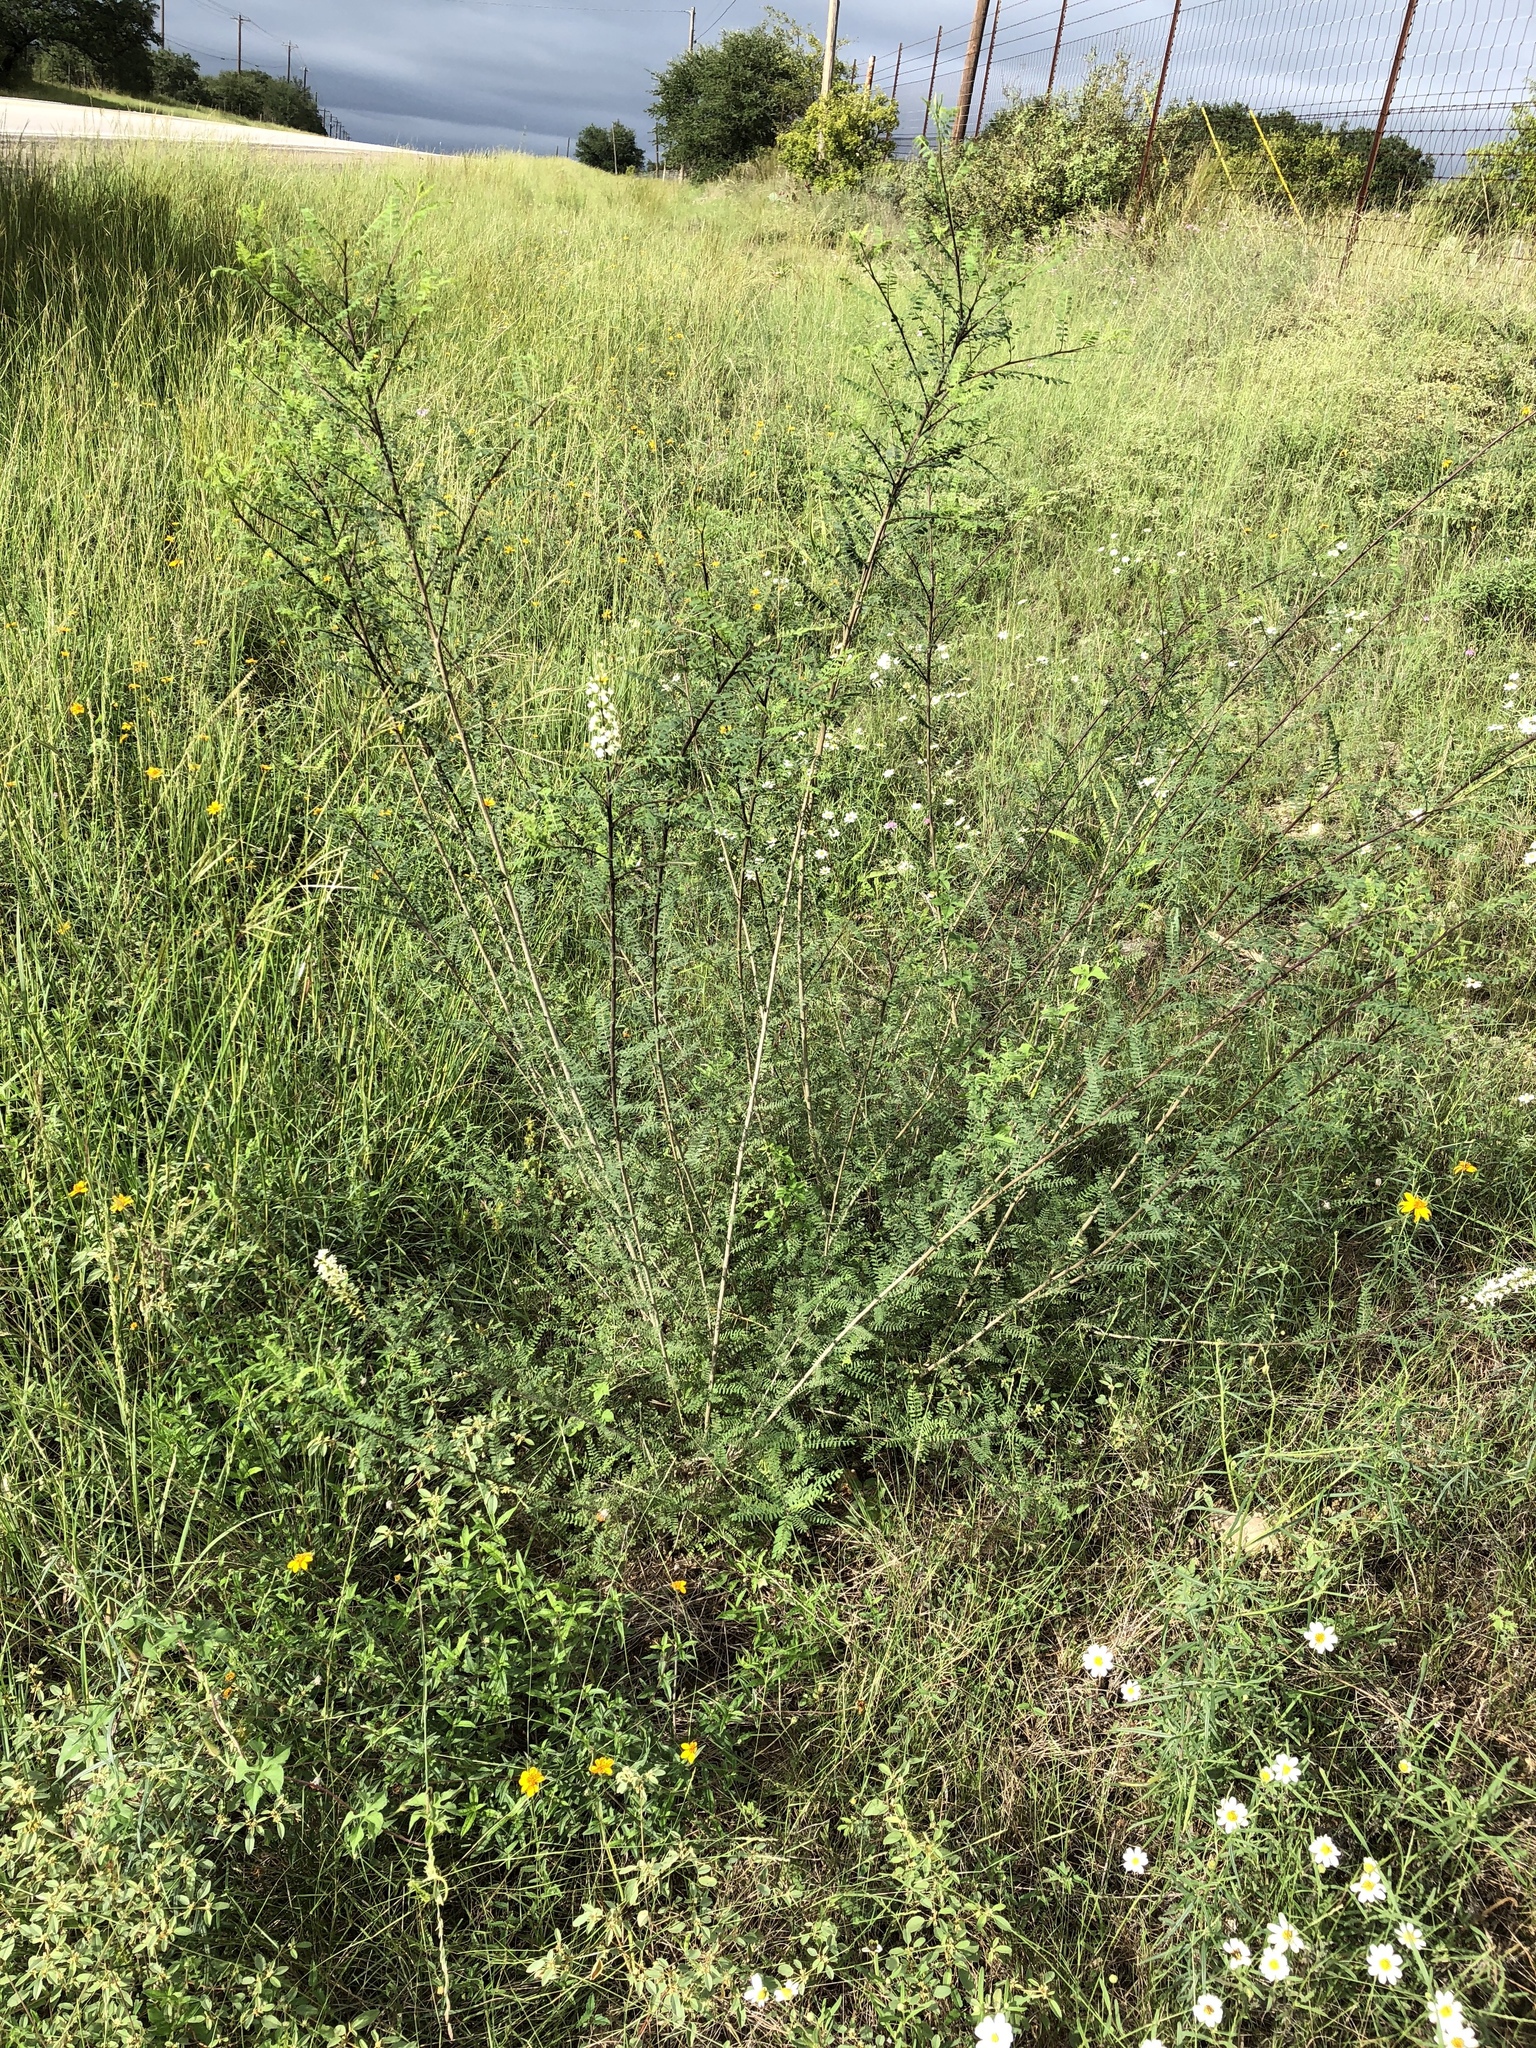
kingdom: Plantae
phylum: Tracheophyta
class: Magnoliopsida
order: Fabales
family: Fabaceae
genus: Eysenhardtia
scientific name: Eysenhardtia texana
